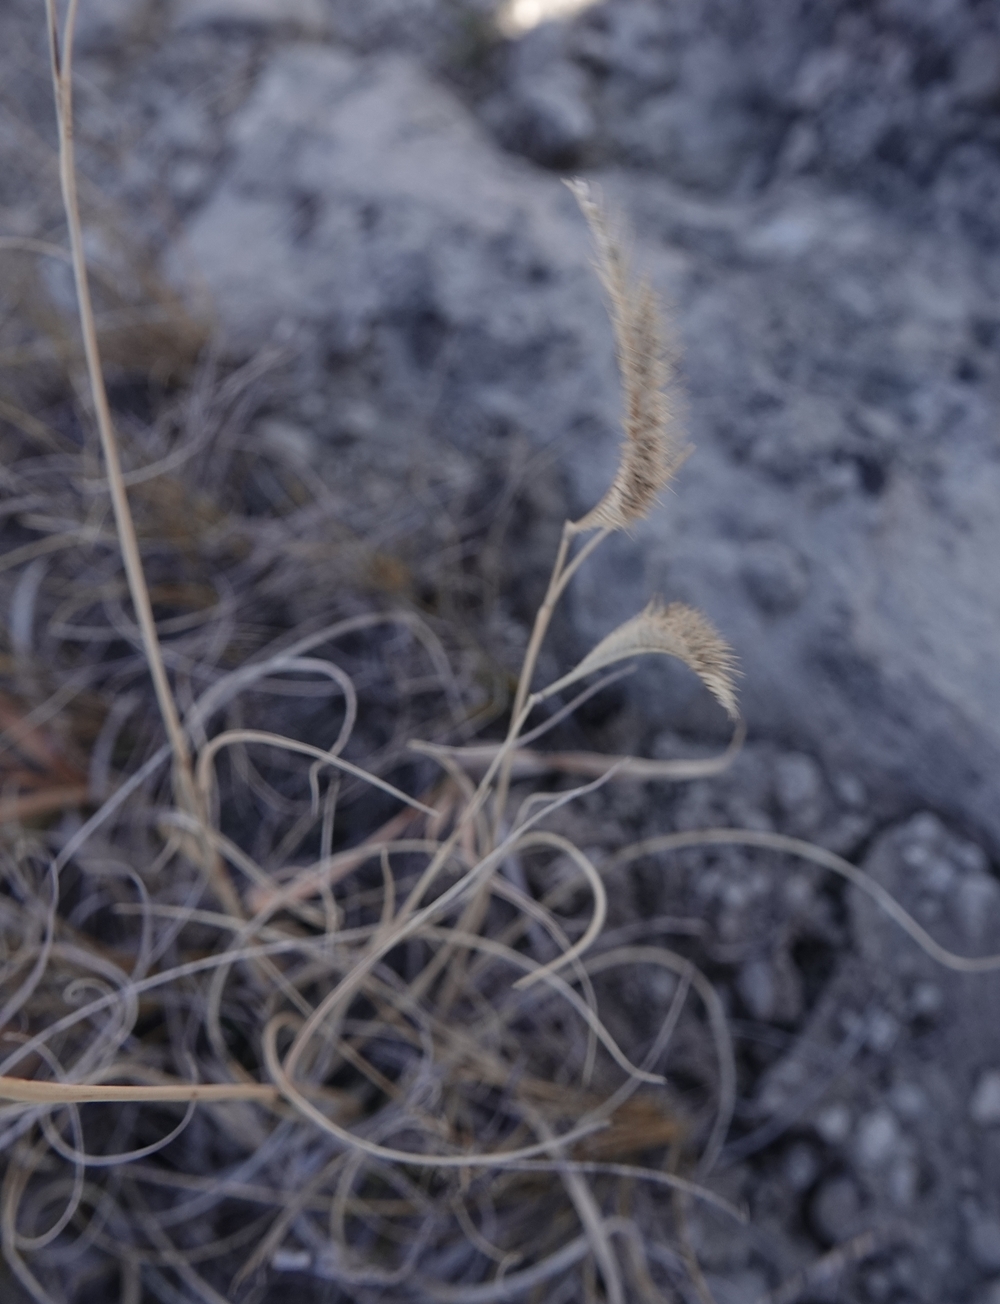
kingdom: Plantae
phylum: Tracheophyta
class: Liliopsida
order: Poales
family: Poaceae
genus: Bouteloua
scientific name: Bouteloua gracilis
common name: Blue grama
